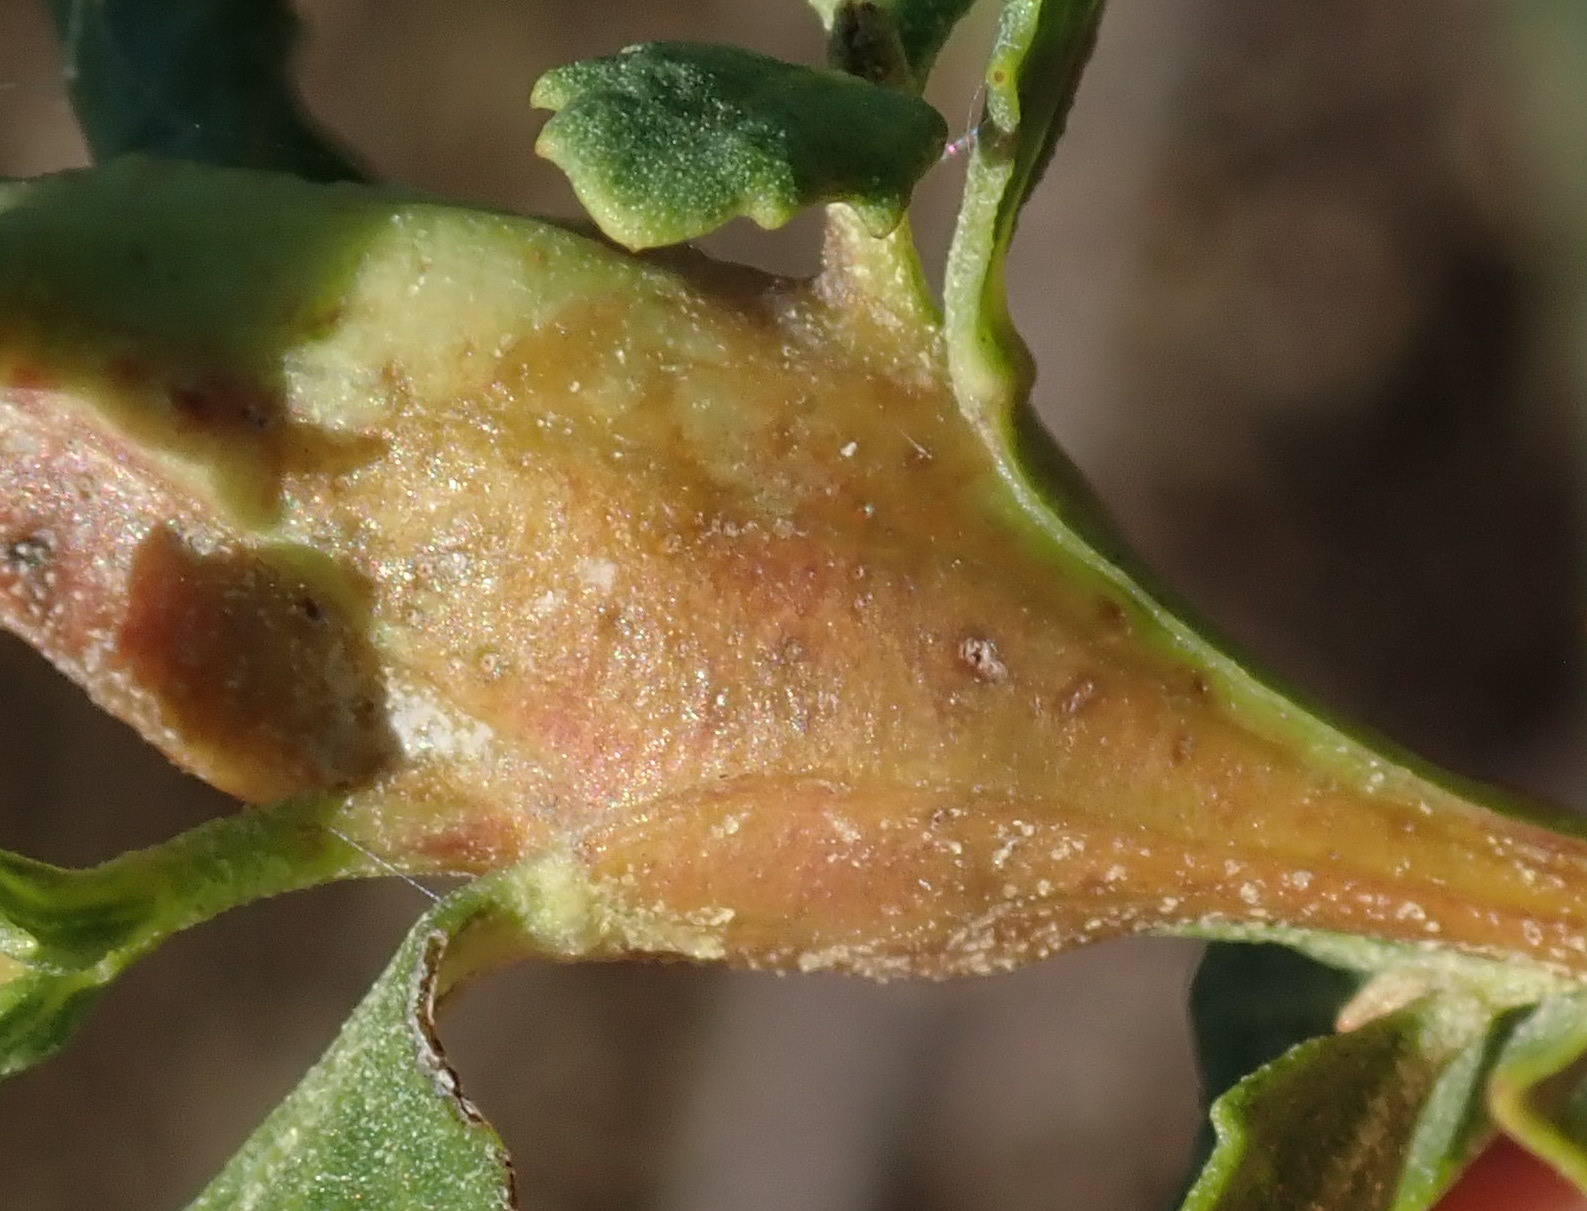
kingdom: Animalia
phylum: Arthropoda
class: Insecta
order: Lepidoptera
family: Gelechiidae
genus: Gnorimoschema
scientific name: Gnorimoschema baccharisella
